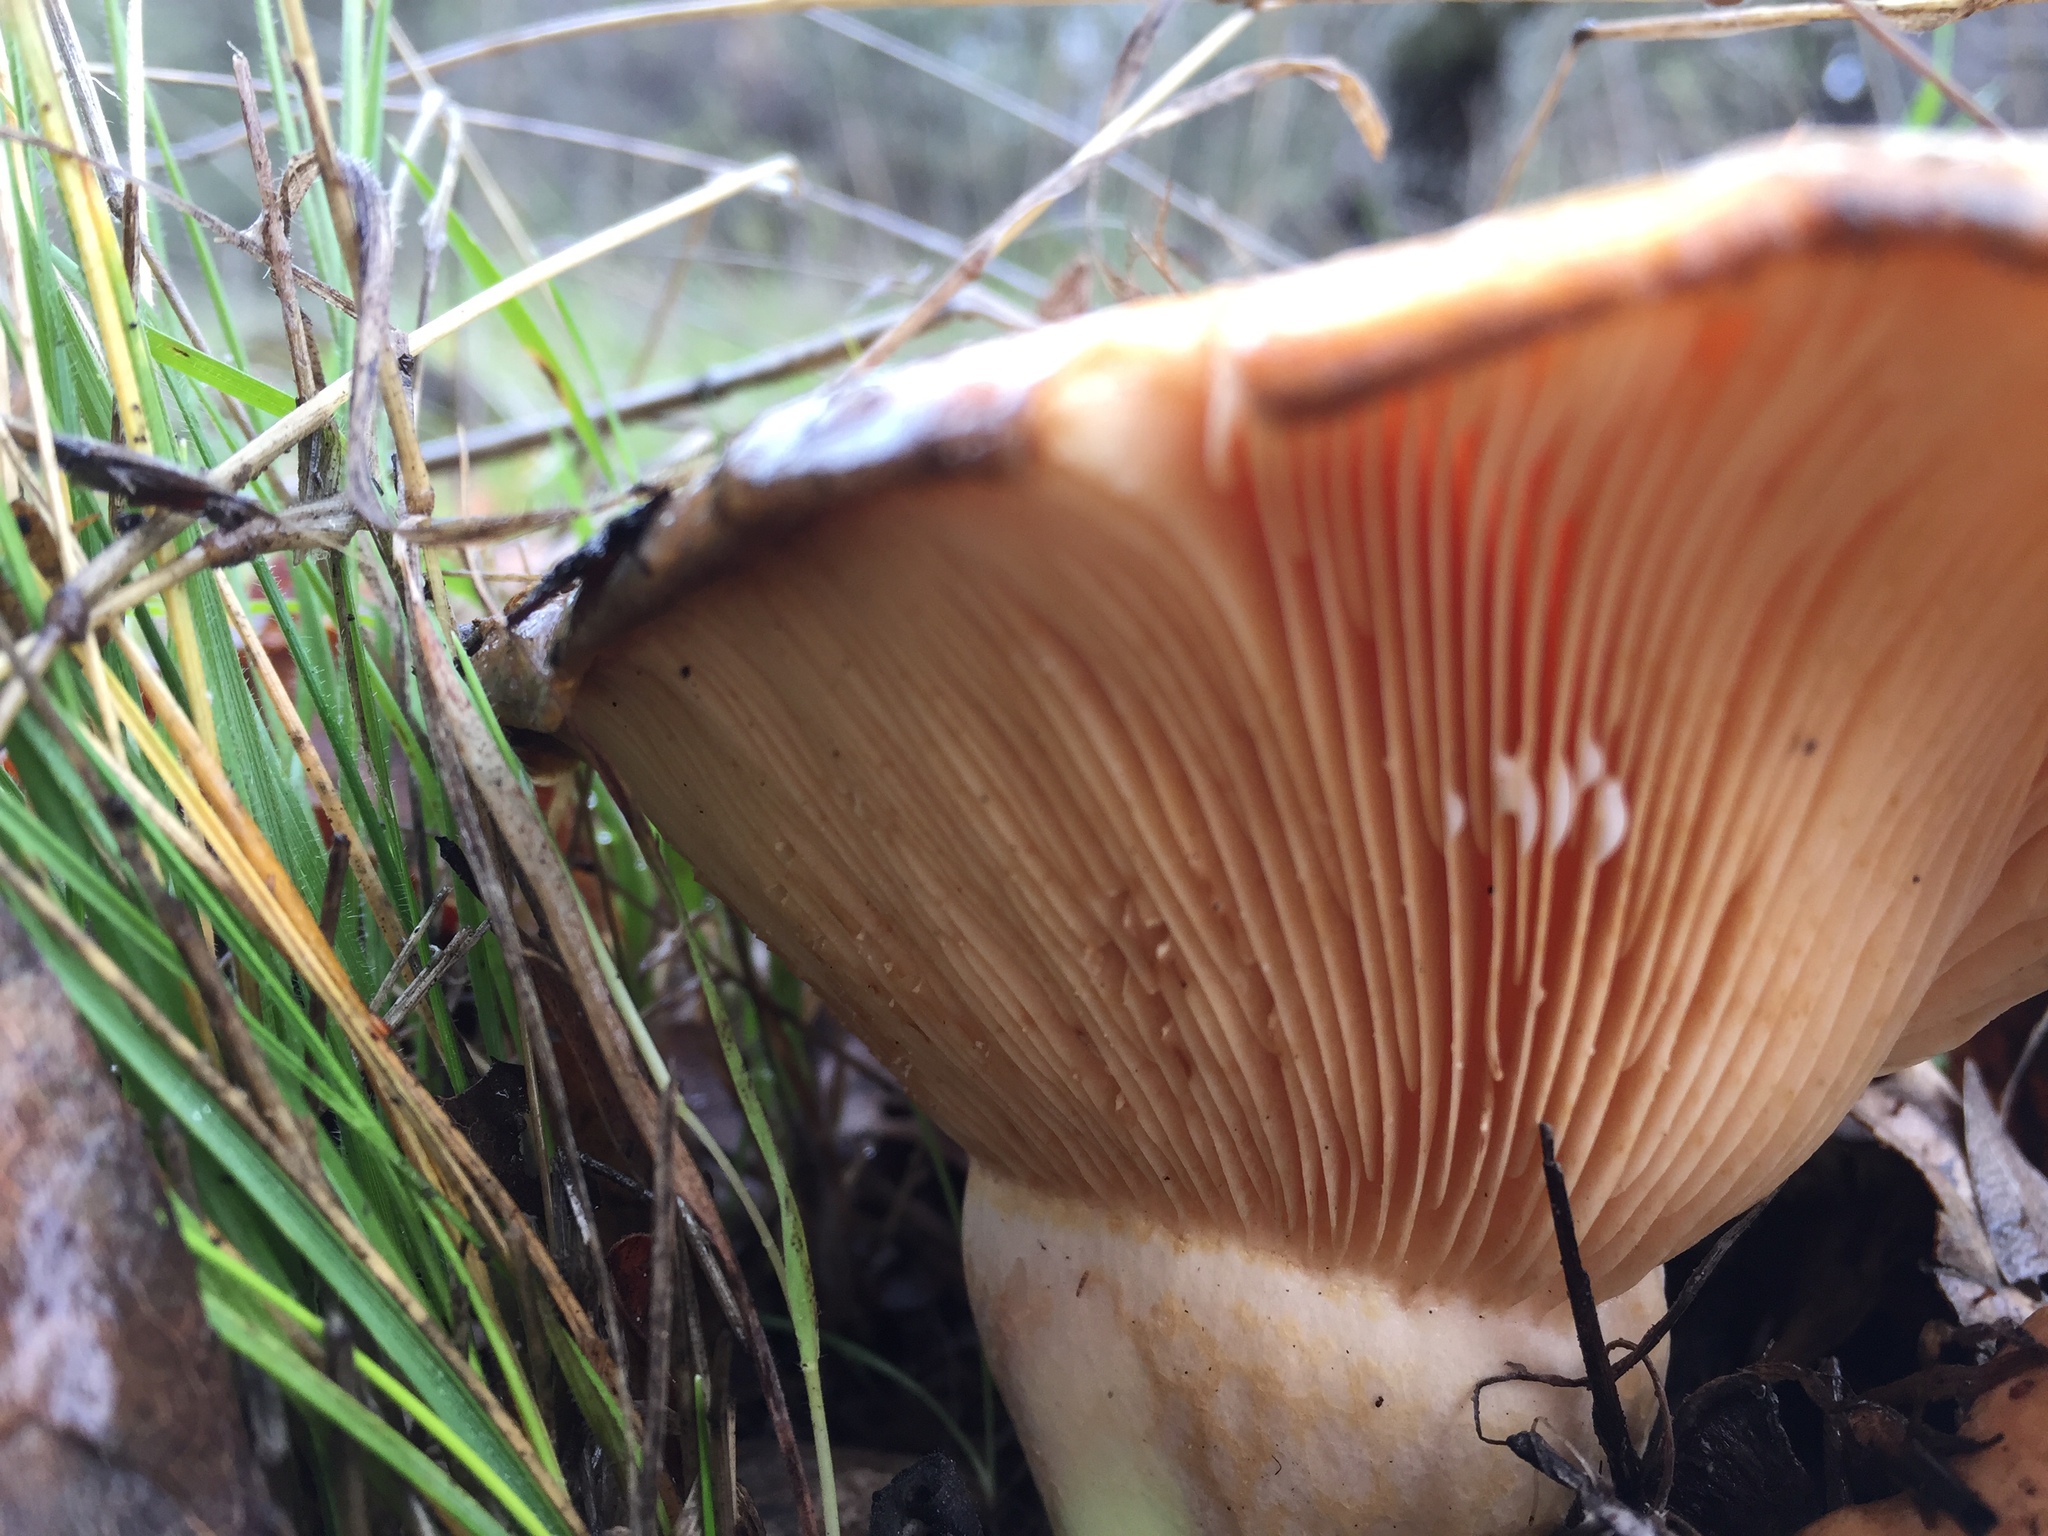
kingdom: Fungi
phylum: Basidiomycota
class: Agaricomycetes
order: Russulales
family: Russulaceae
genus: Lactarius
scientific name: Lactarius alnicola
